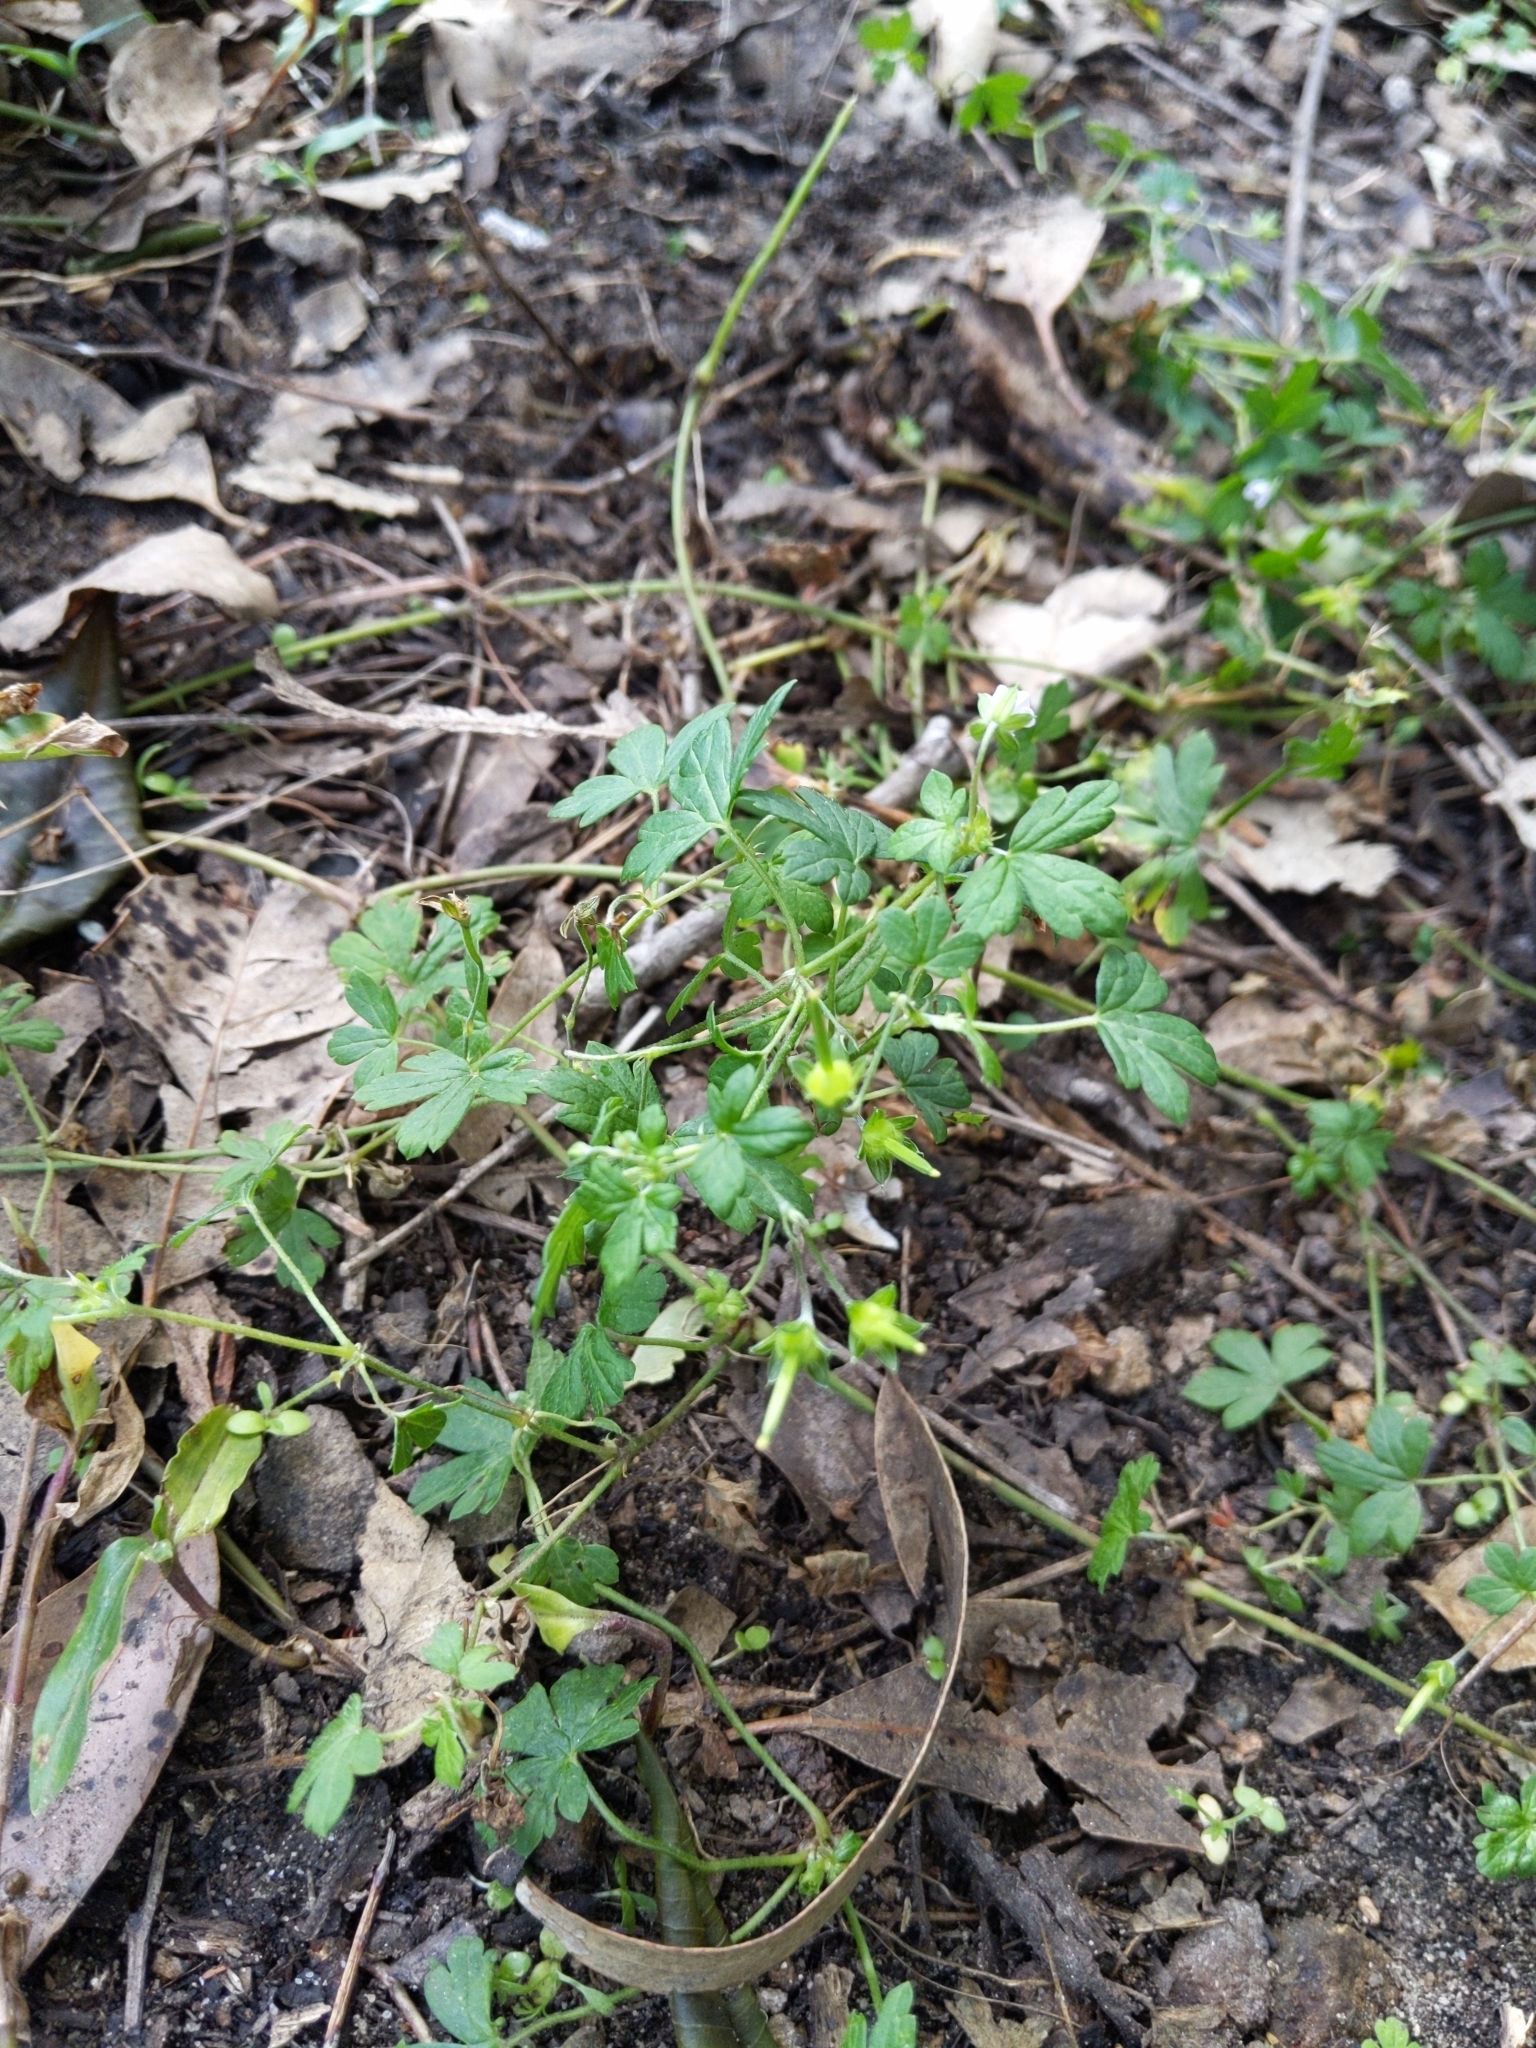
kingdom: Plantae
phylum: Tracheophyta
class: Magnoliopsida
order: Geraniales
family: Geraniaceae
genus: Geranium
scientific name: Geranium homeanum
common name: Australasian geranium
